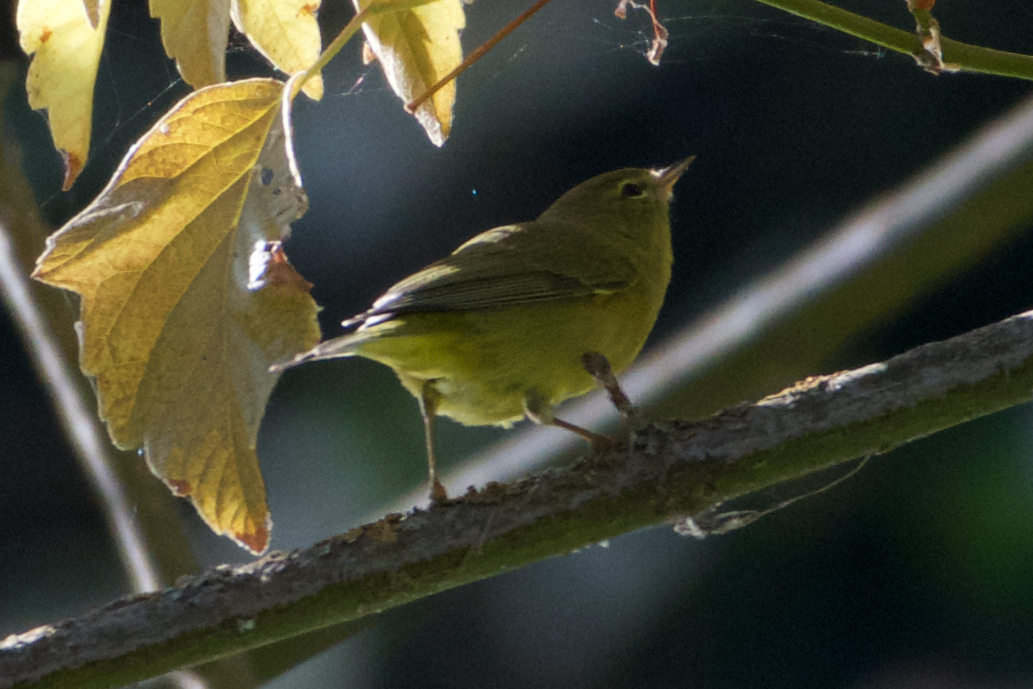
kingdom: Animalia
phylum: Chordata
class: Aves
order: Passeriformes
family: Parulidae
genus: Leiothlypis
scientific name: Leiothlypis celata
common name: Orange-crowned warbler
